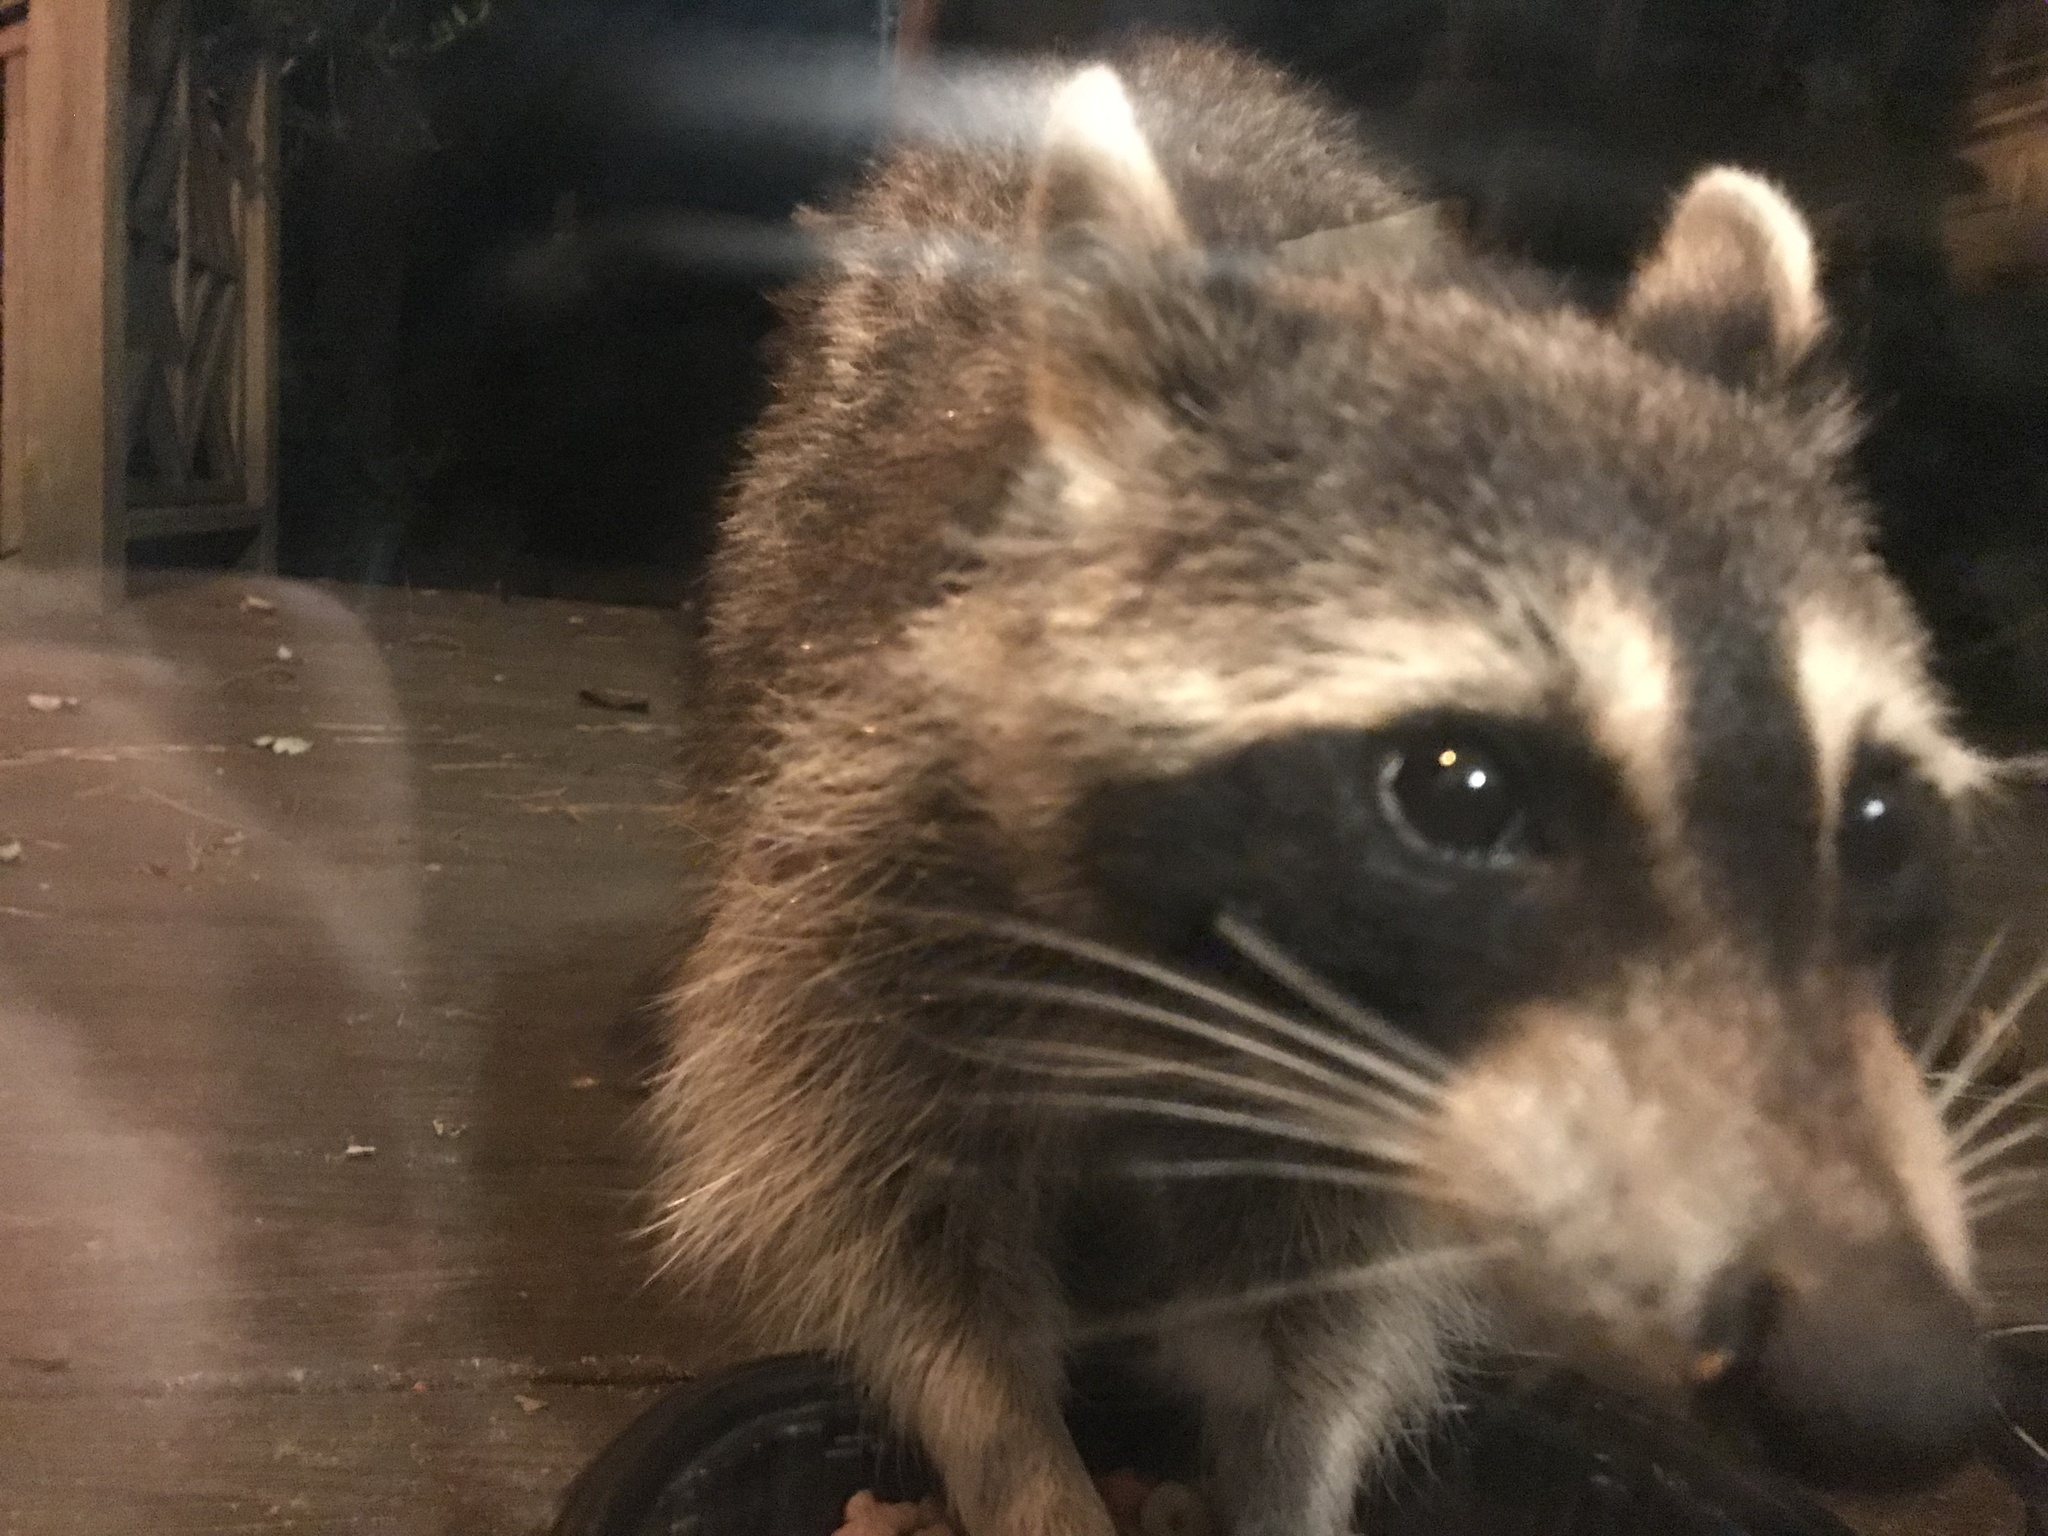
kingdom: Animalia
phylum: Chordata
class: Mammalia
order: Carnivora
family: Procyonidae
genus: Procyon
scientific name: Procyon lotor
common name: Raccoon
